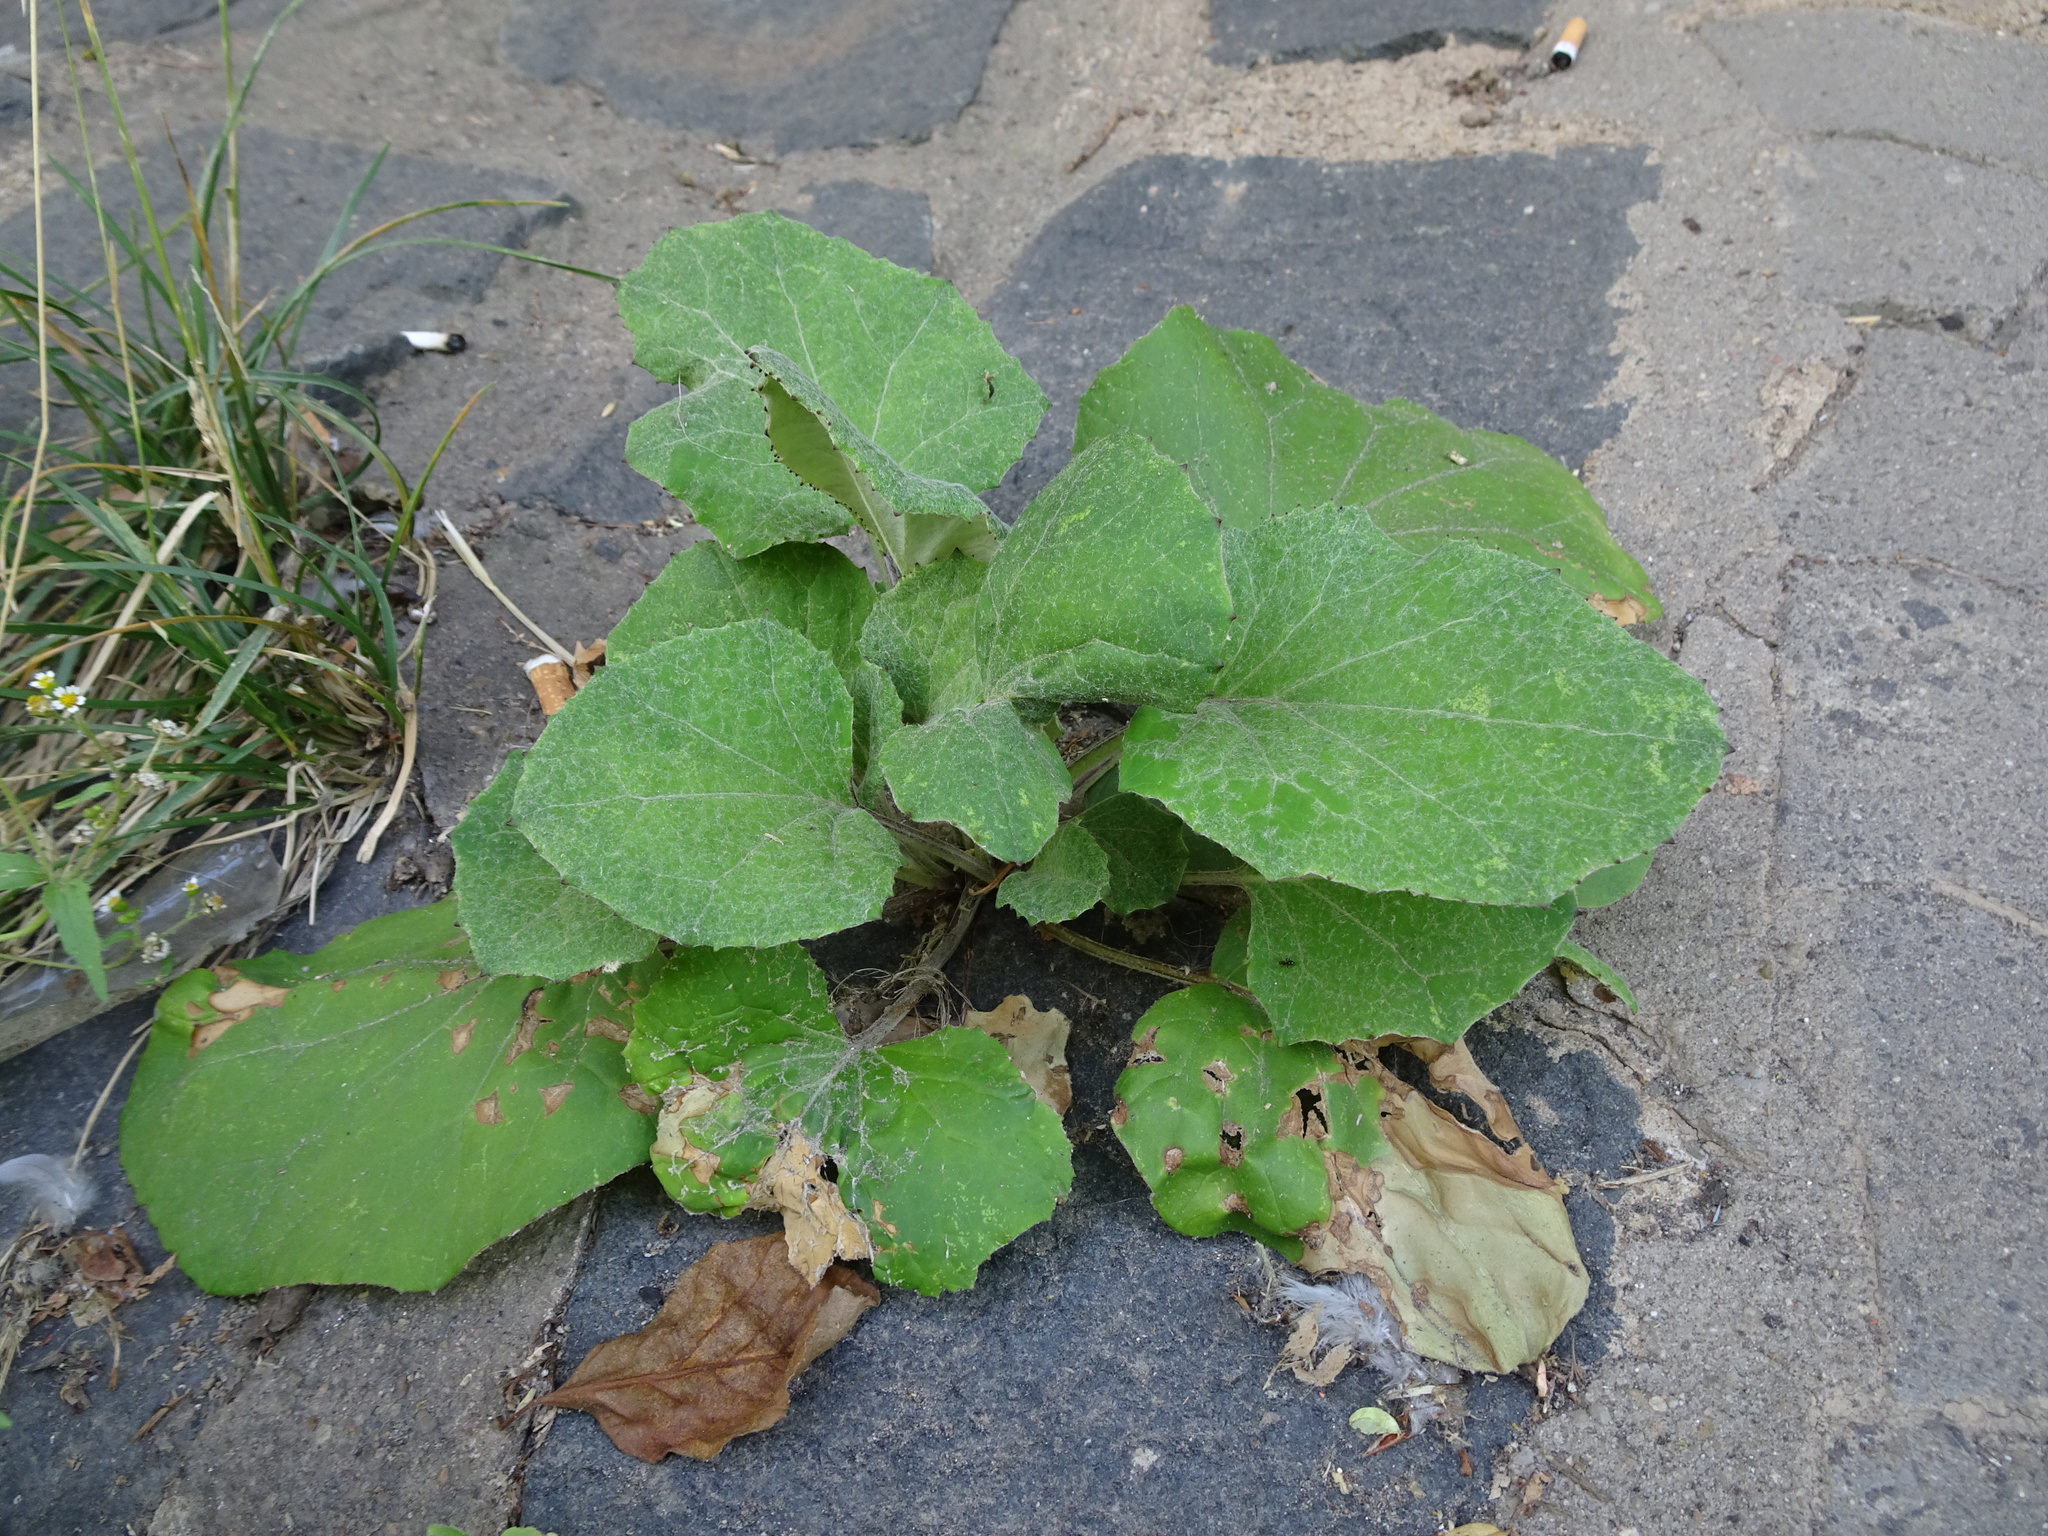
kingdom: Plantae
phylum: Tracheophyta
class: Magnoliopsida
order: Asterales
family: Asteraceae
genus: Tussilago
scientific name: Tussilago farfara
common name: Coltsfoot
